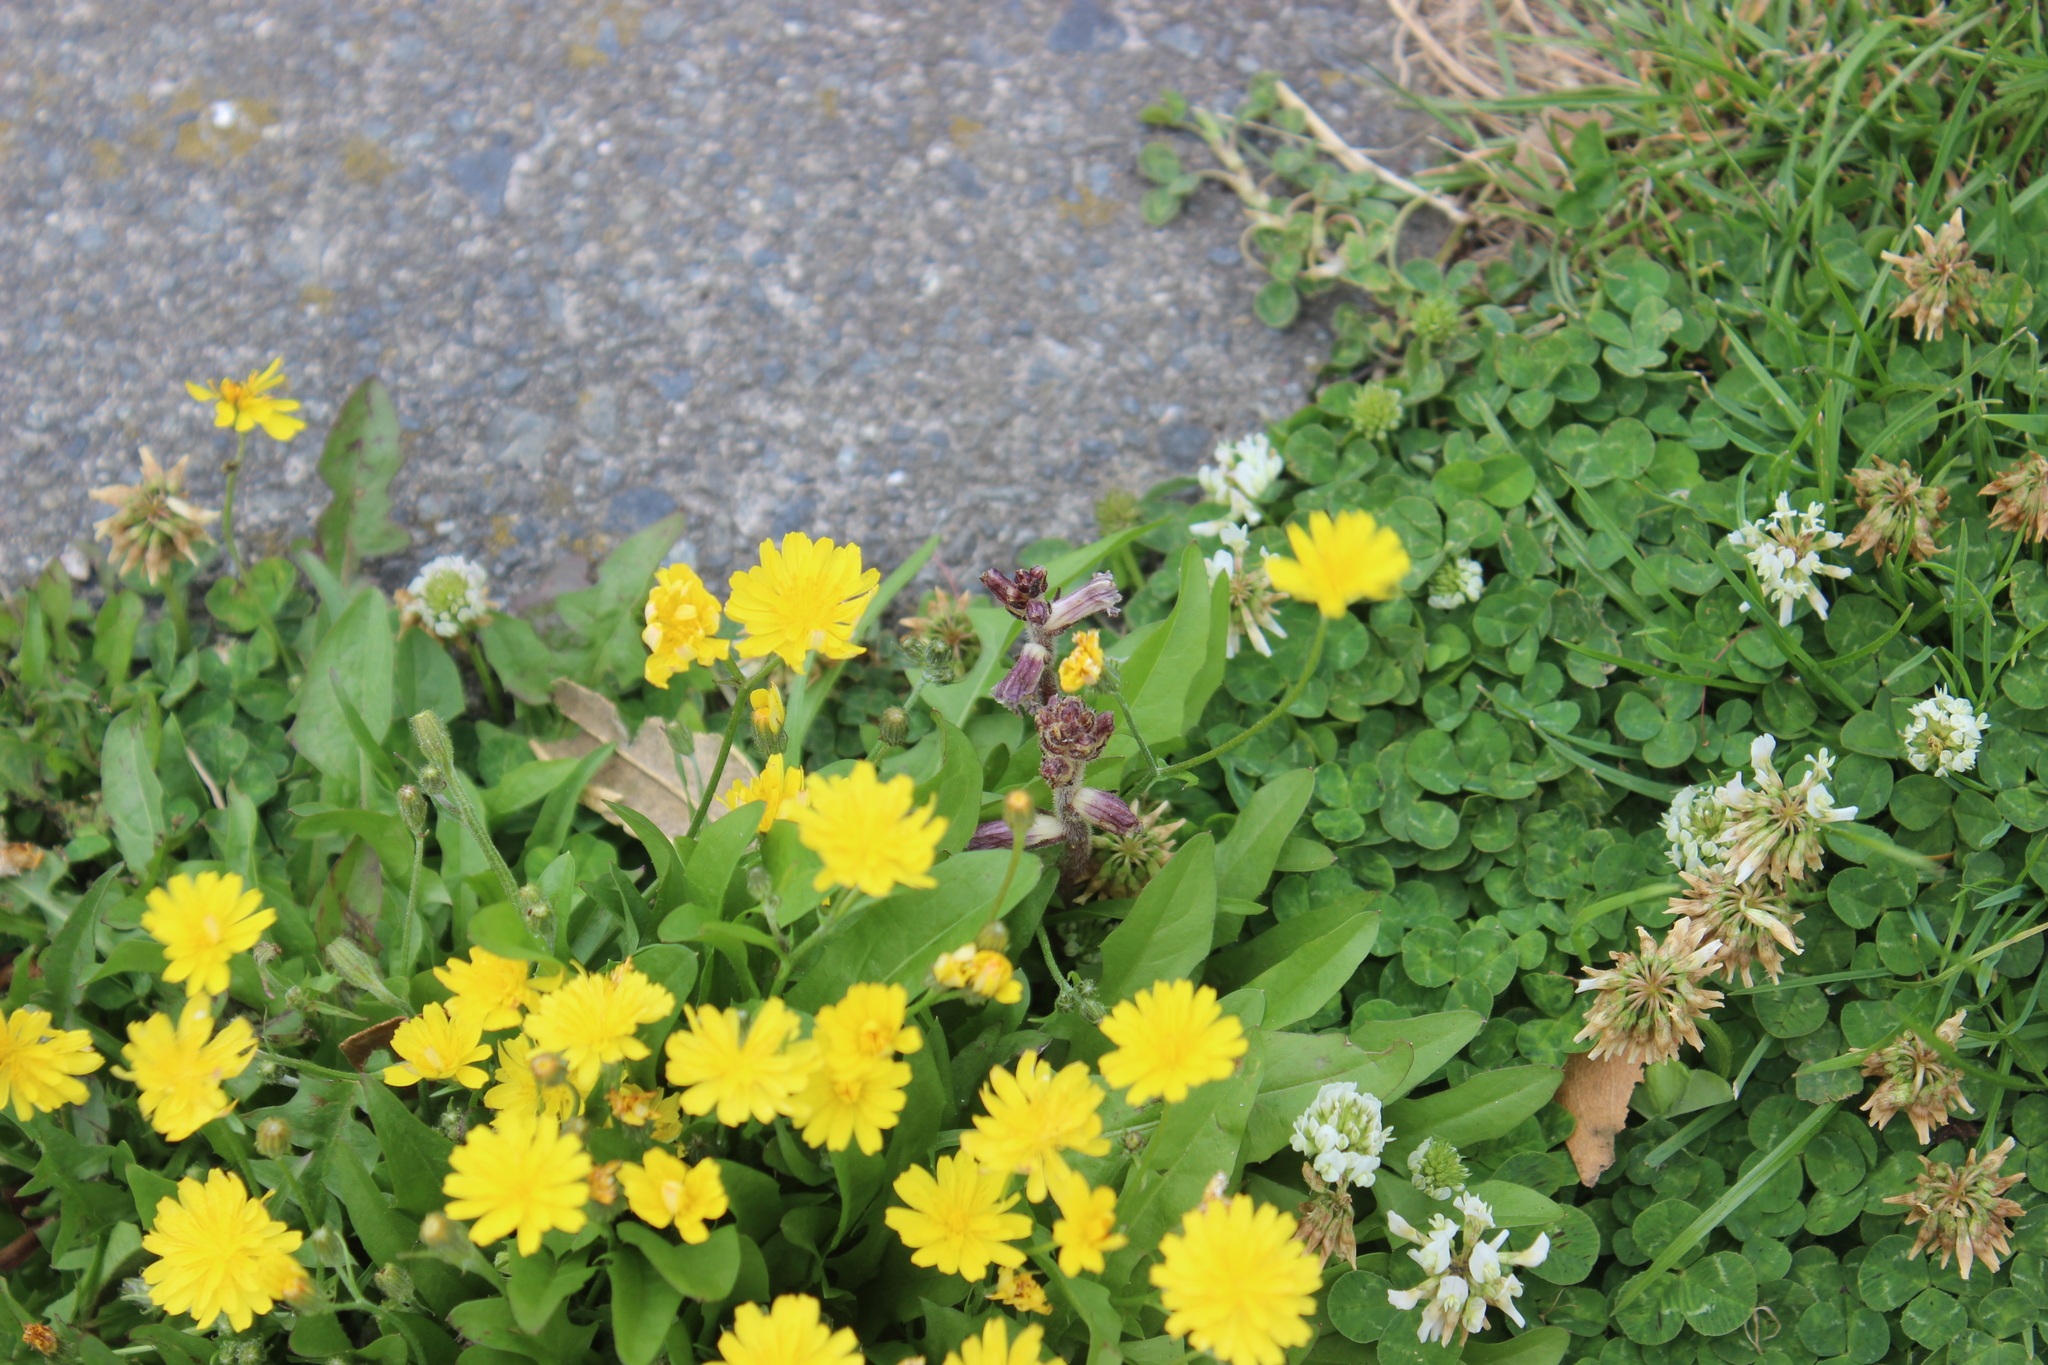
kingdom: Plantae
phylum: Tracheophyta
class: Magnoliopsida
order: Lamiales
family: Orobanchaceae
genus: Orobanche
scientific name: Orobanche minor
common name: Common broomrape
